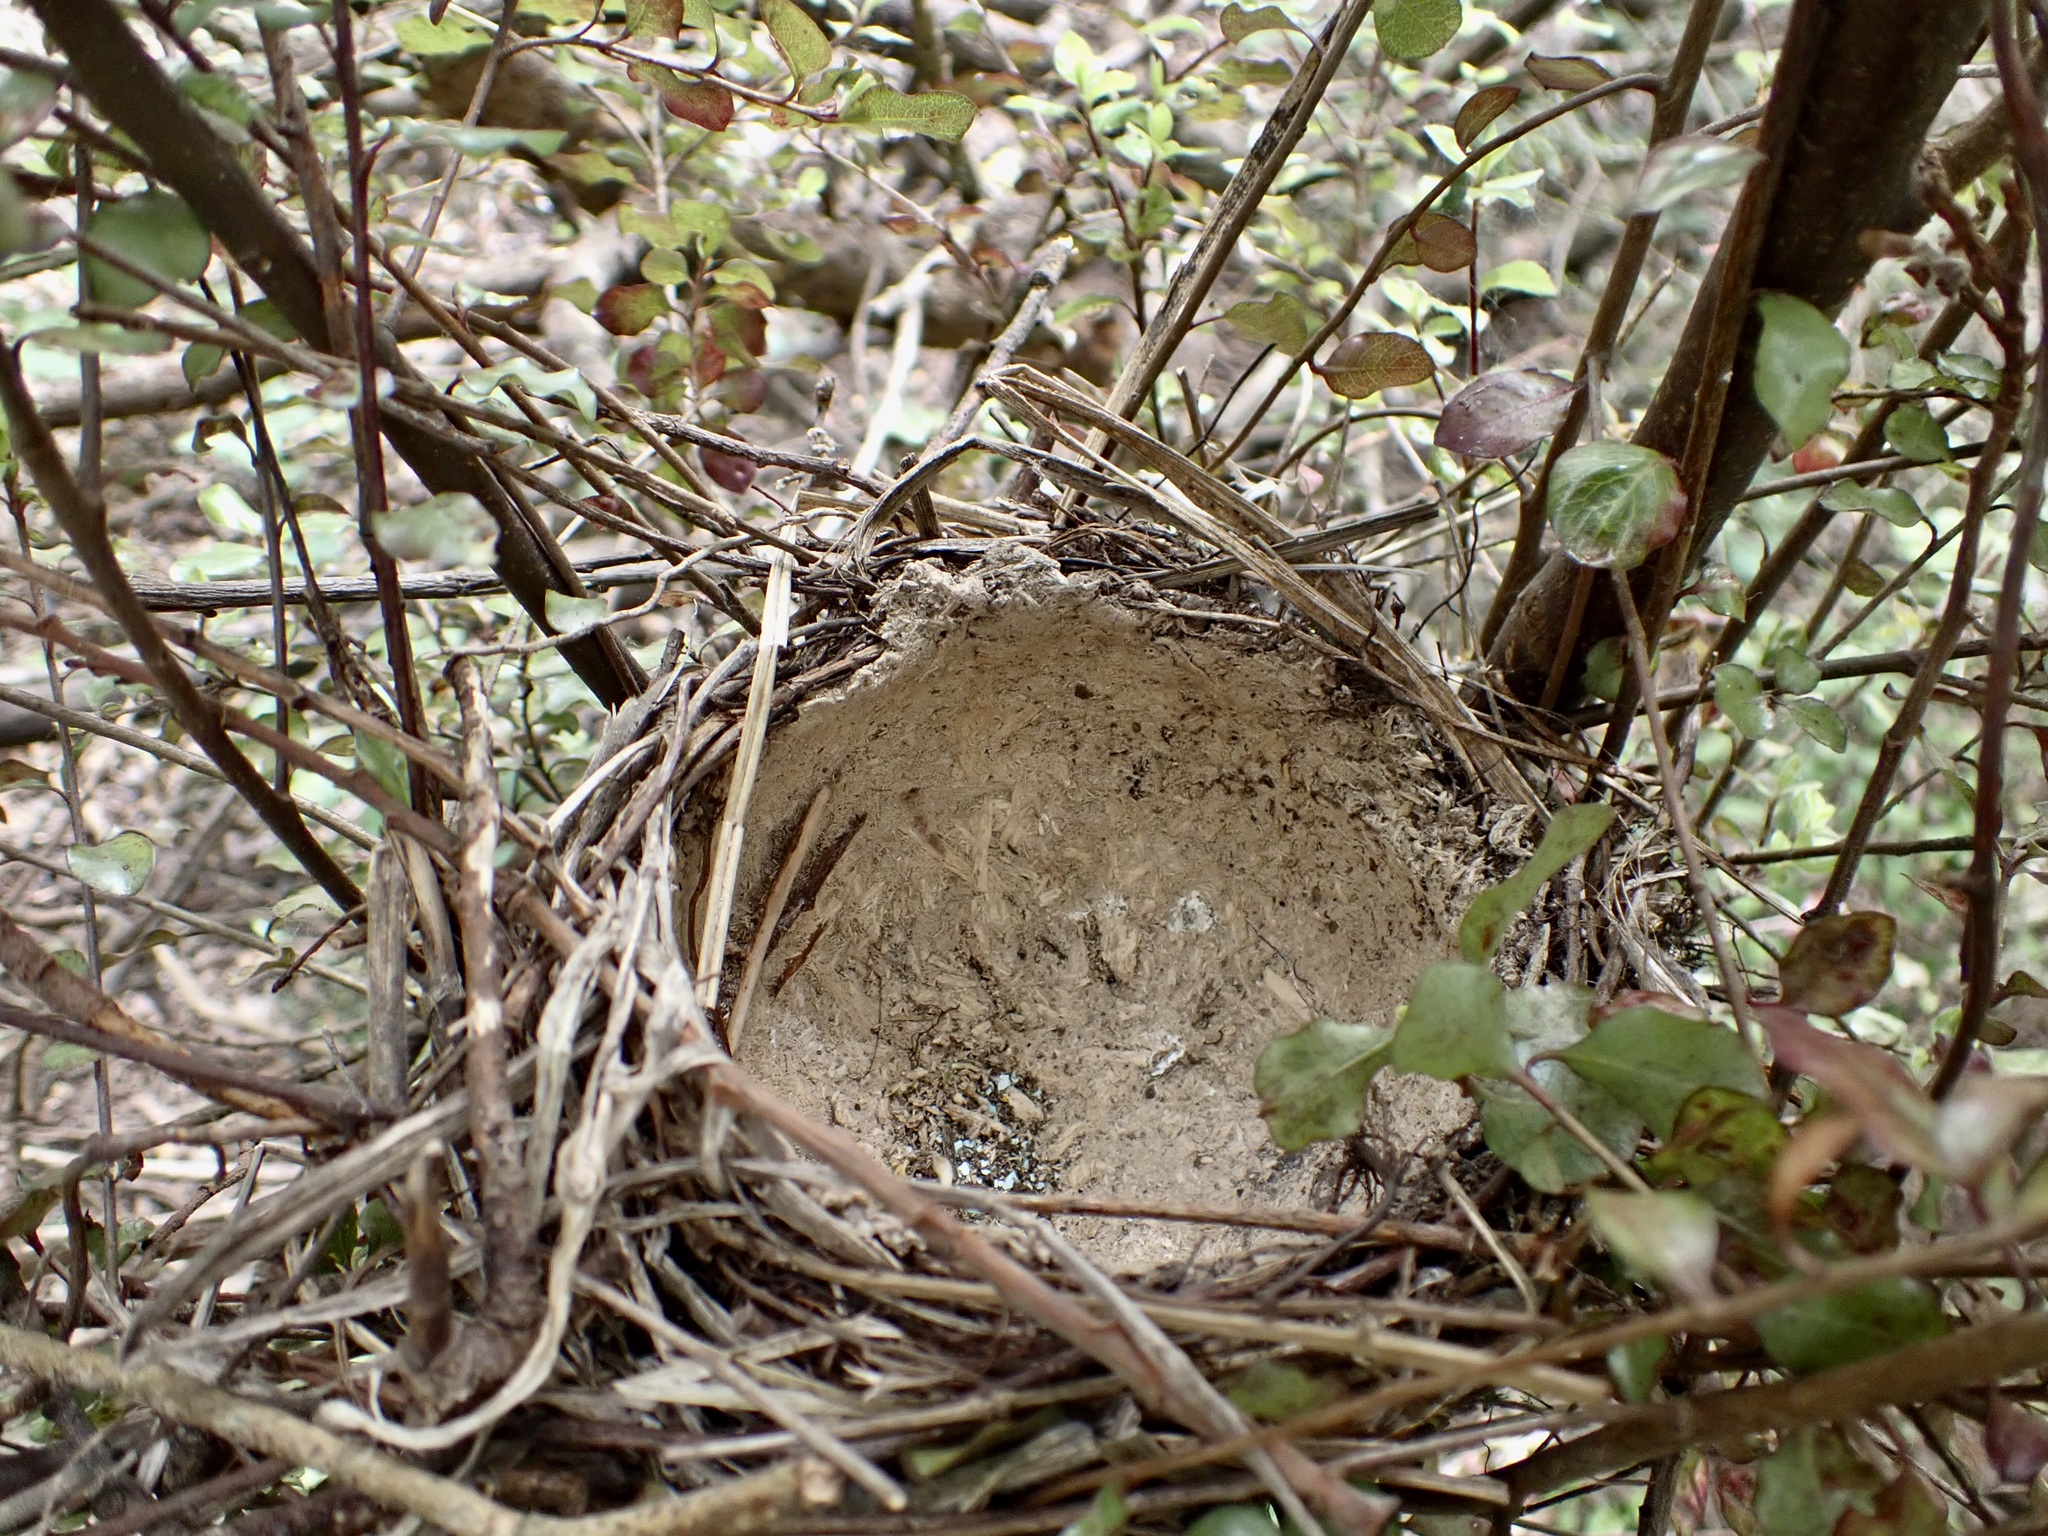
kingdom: Animalia
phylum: Chordata
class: Aves
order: Passeriformes
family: Turdidae
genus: Turdus
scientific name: Turdus philomelos
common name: Song thrush
